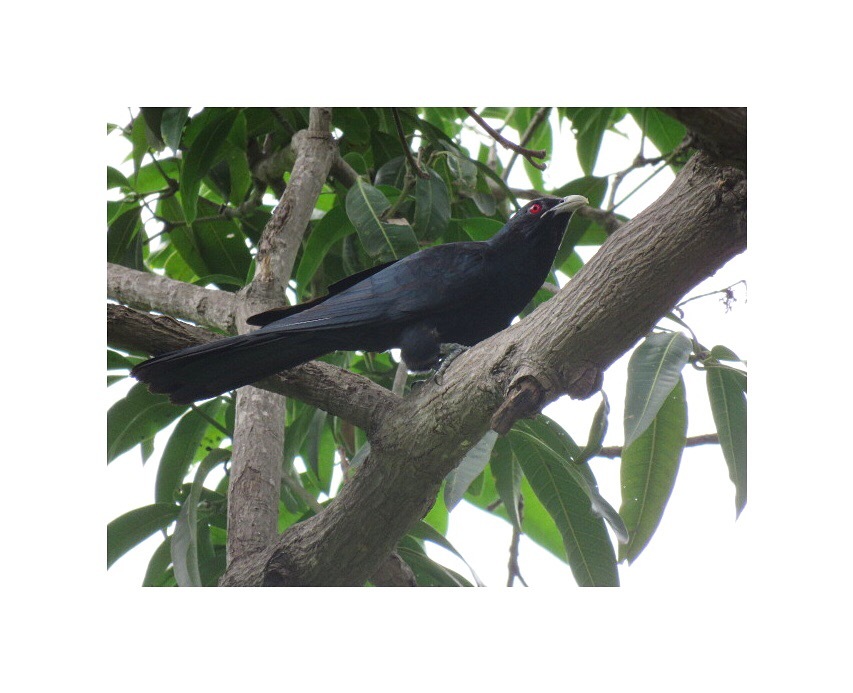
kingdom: Animalia
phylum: Chordata
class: Aves
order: Cuculiformes
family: Cuculidae
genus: Eudynamys
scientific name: Eudynamys scolopaceus
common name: Asian koel
